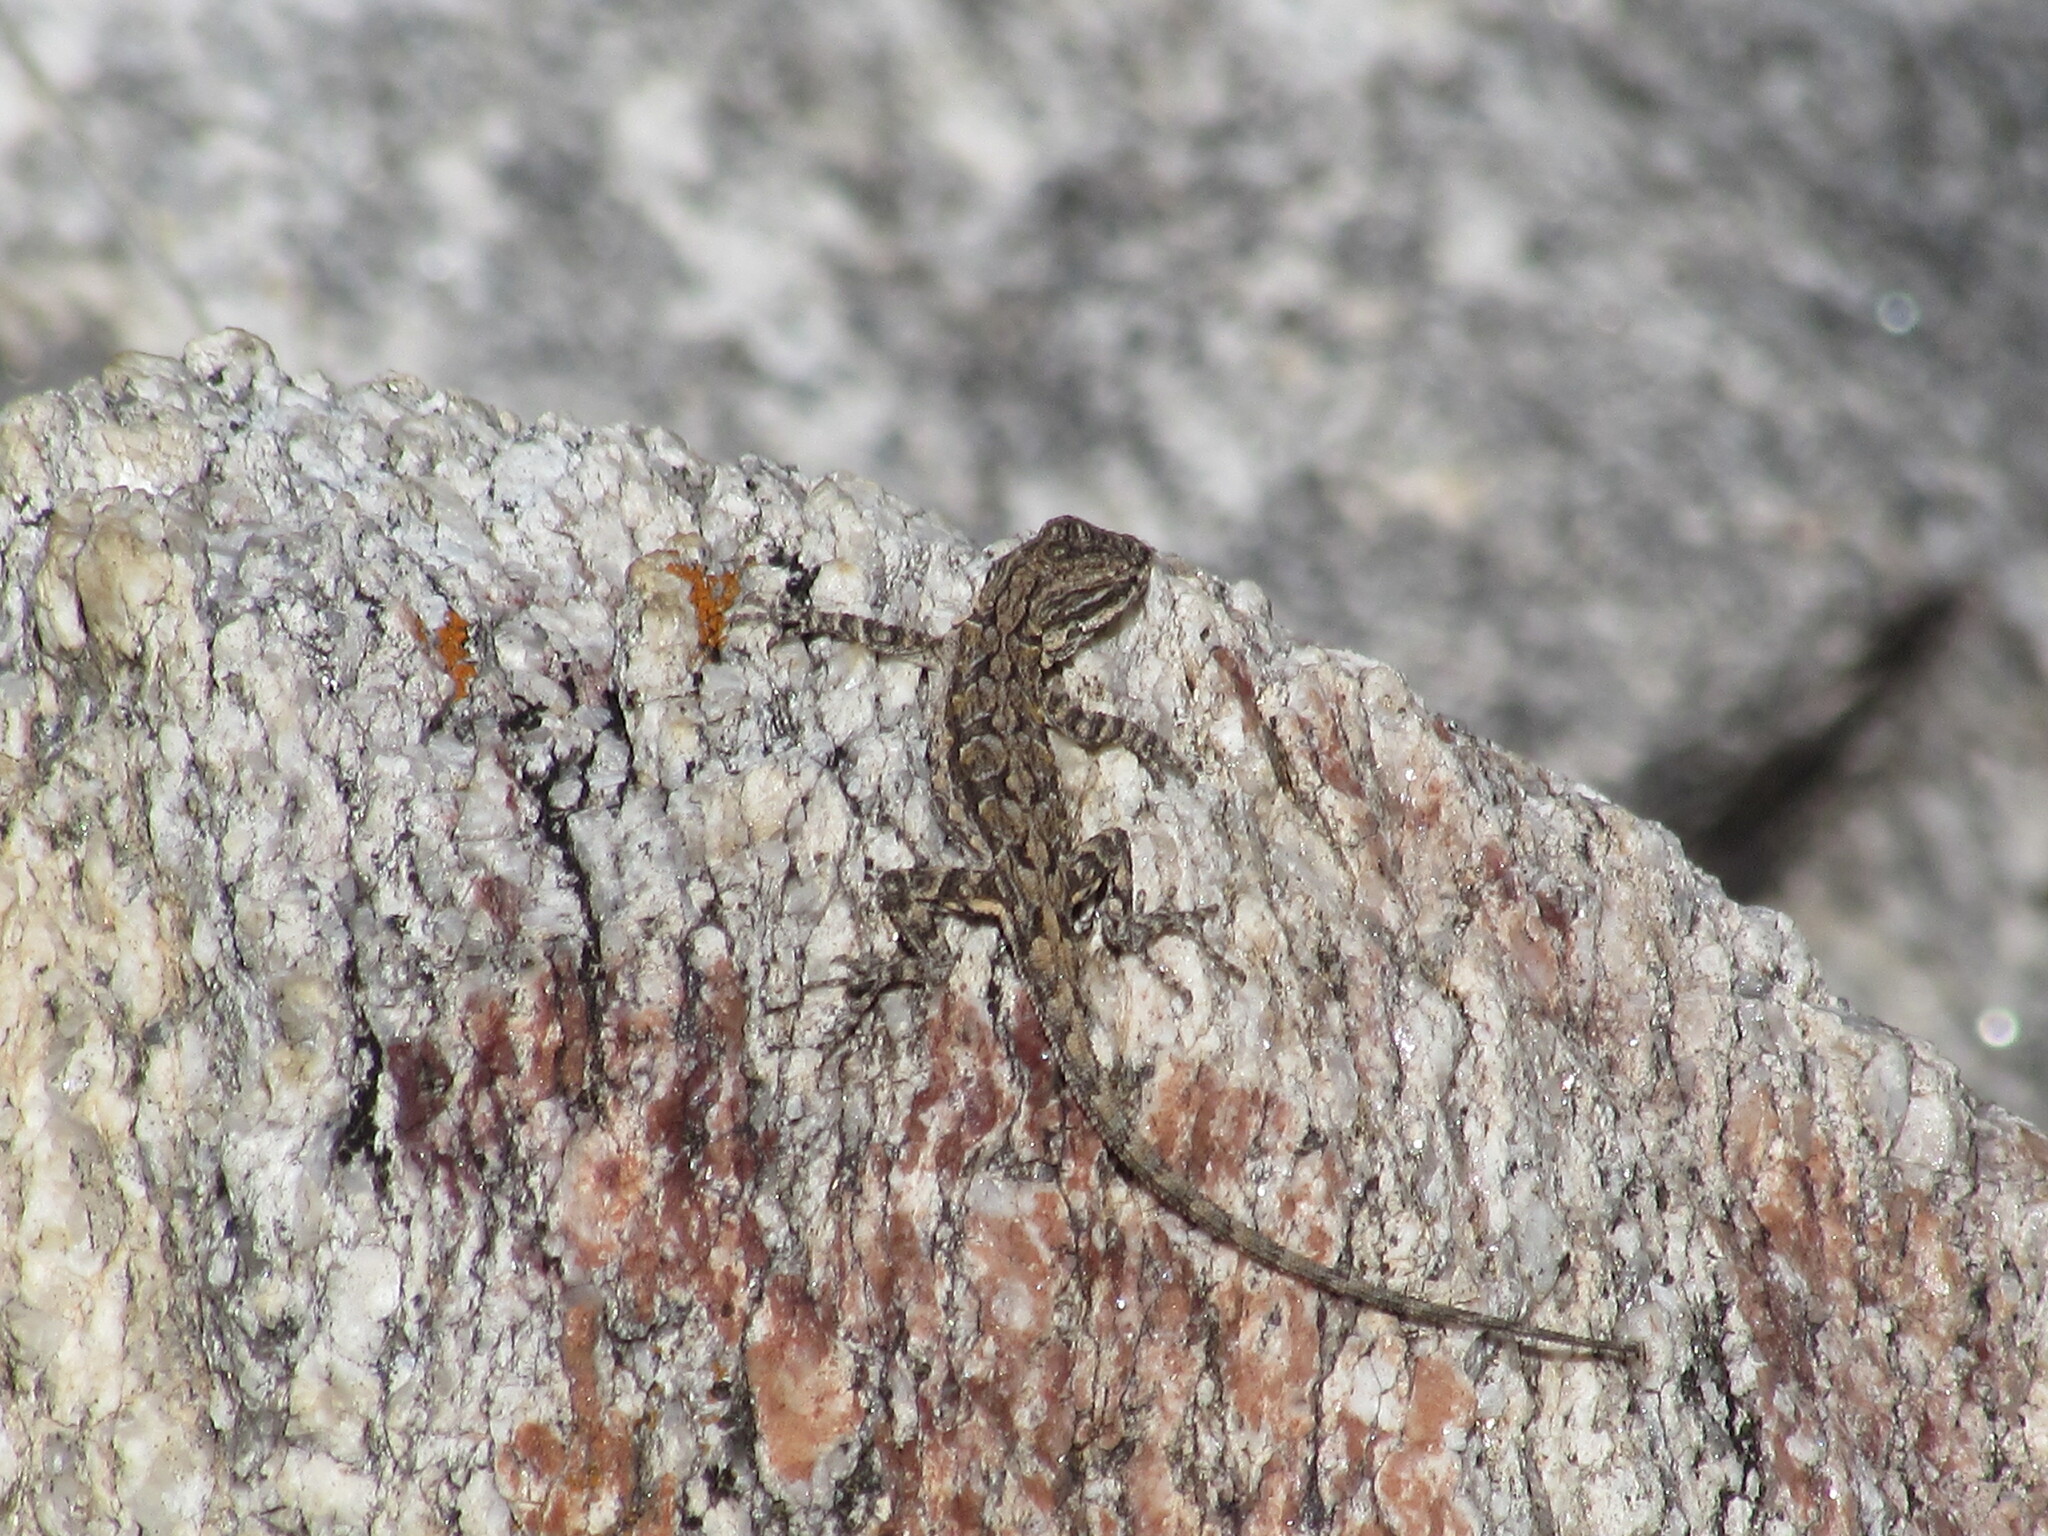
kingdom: Animalia
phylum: Chordata
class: Squamata
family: Phrynosomatidae
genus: Urosaurus
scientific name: Urosaurus ornatus
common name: Ornate tree lizard
